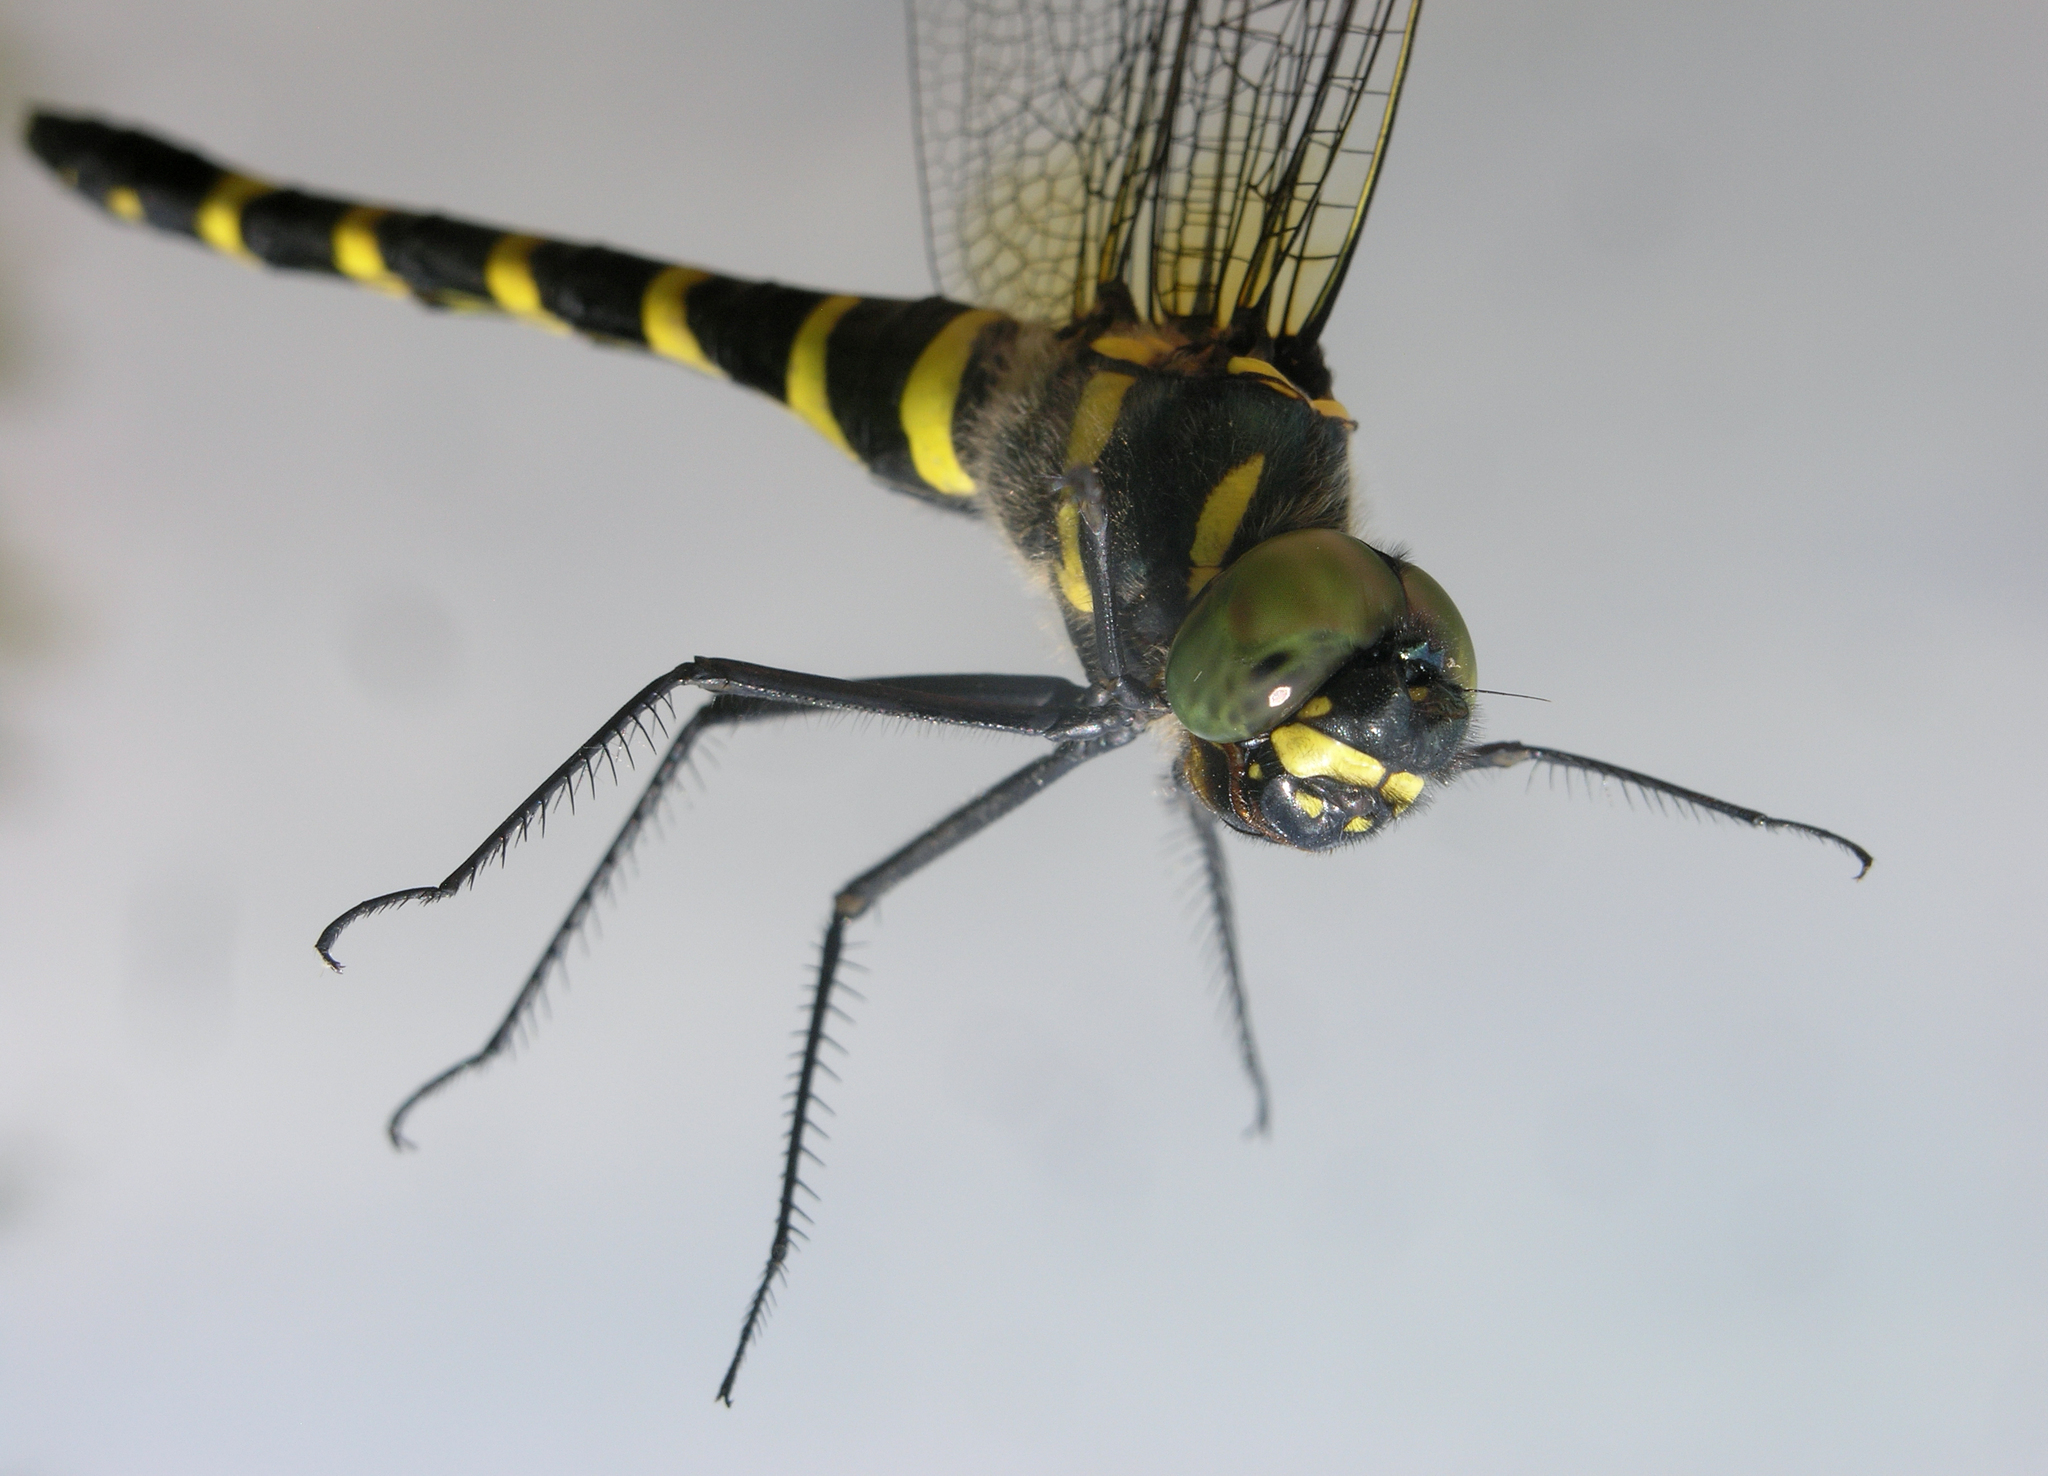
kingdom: Animalia
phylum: Arthropoda
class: Insecta
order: Odonata
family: Macromiidae
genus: Macromia
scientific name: Macromia manchurica
